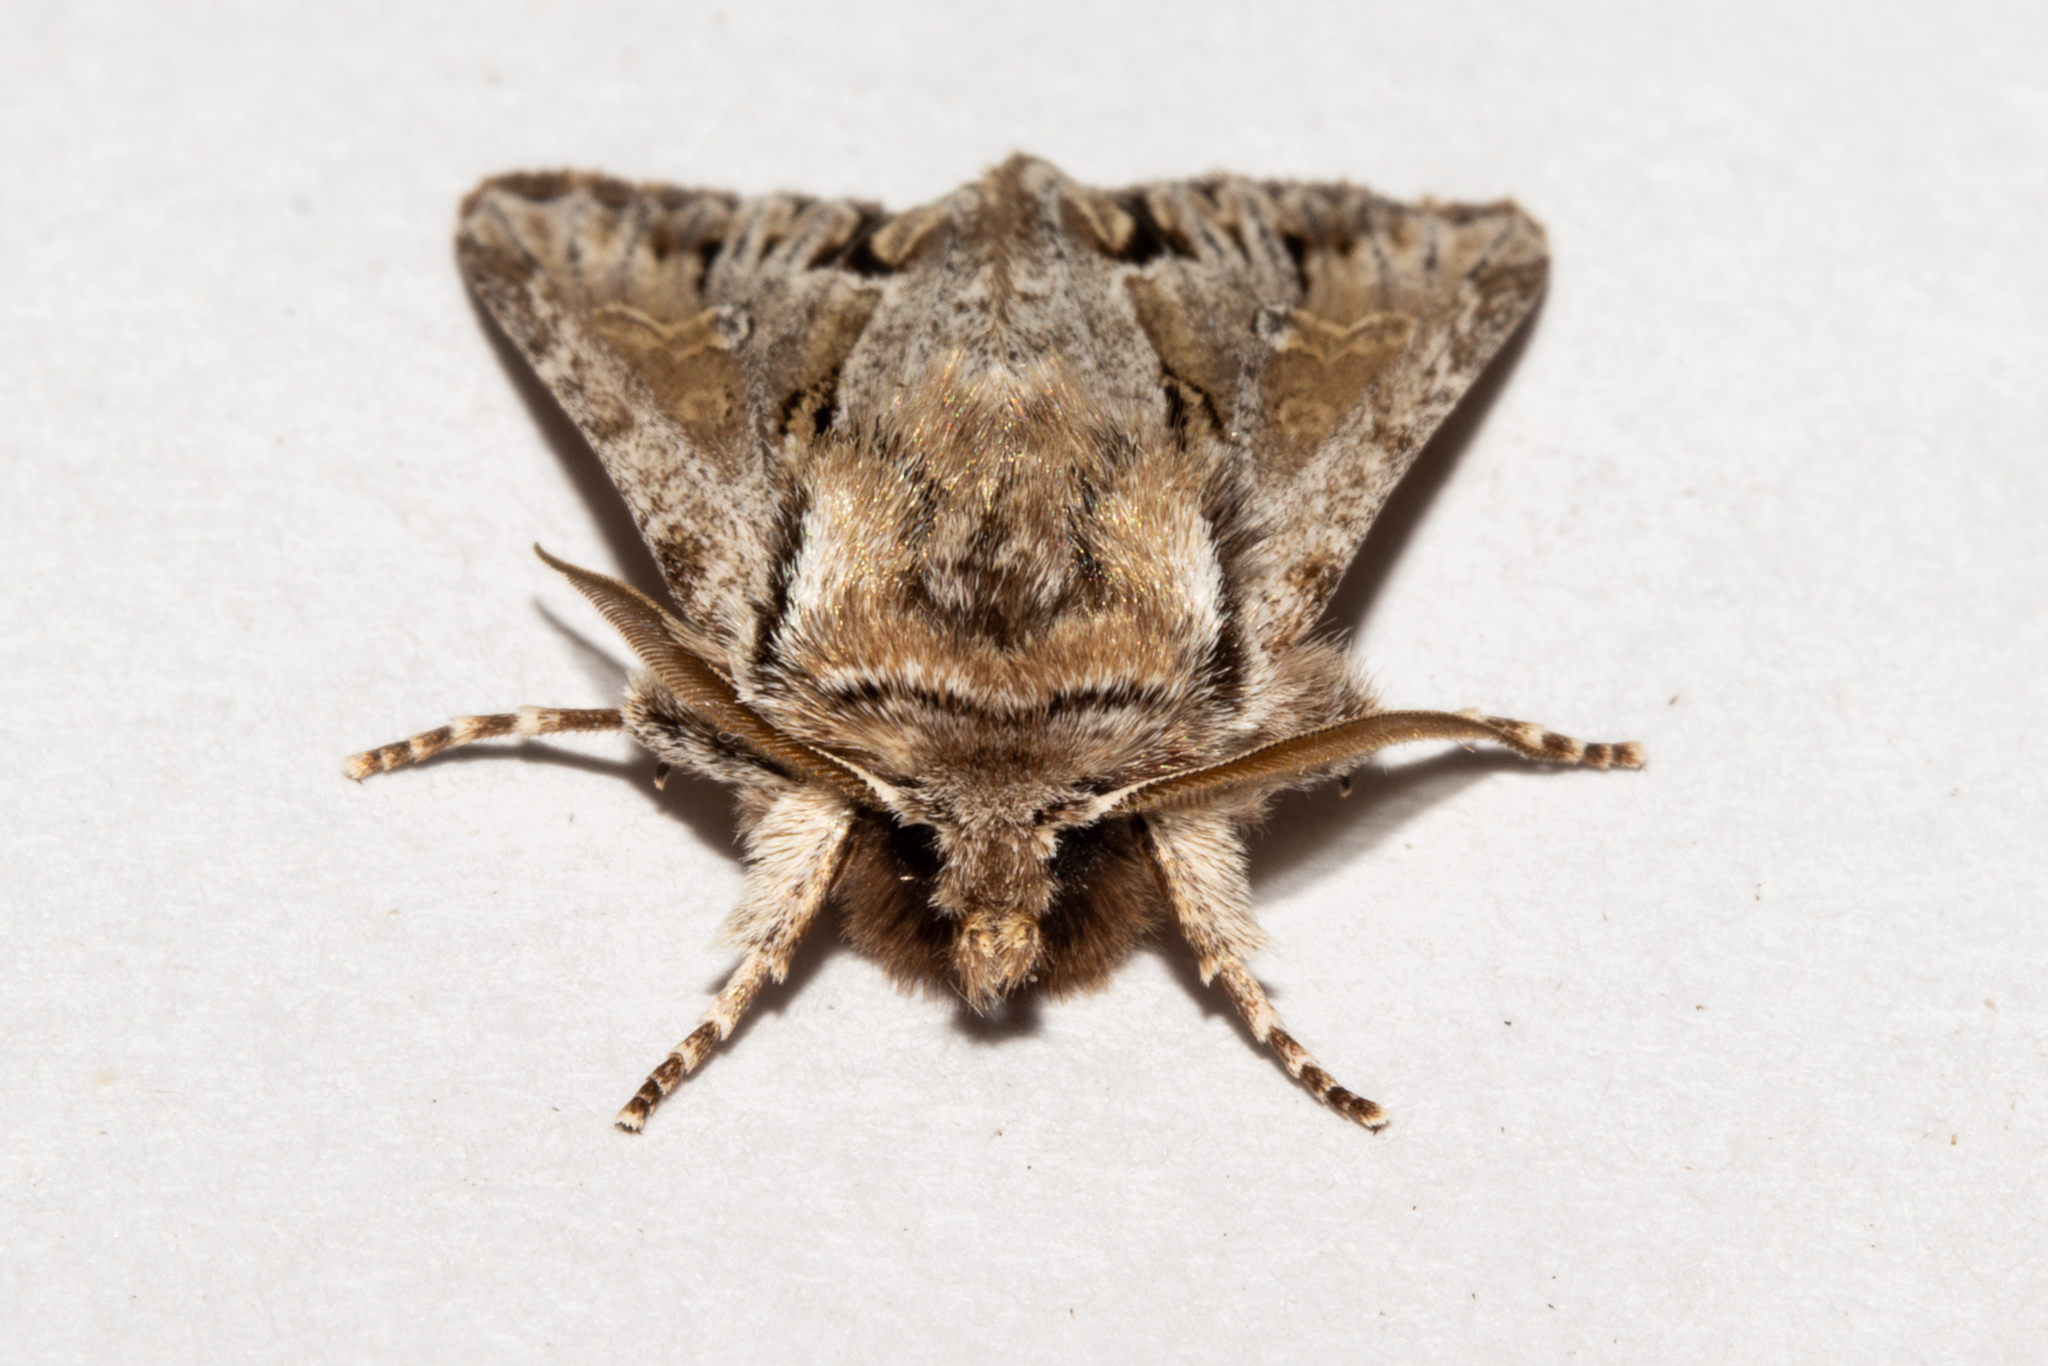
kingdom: Animalia
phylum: Arthropoda
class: Insecta
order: Lepidoptera
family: Noctuidae
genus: Ichneutica
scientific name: Ichneutica
